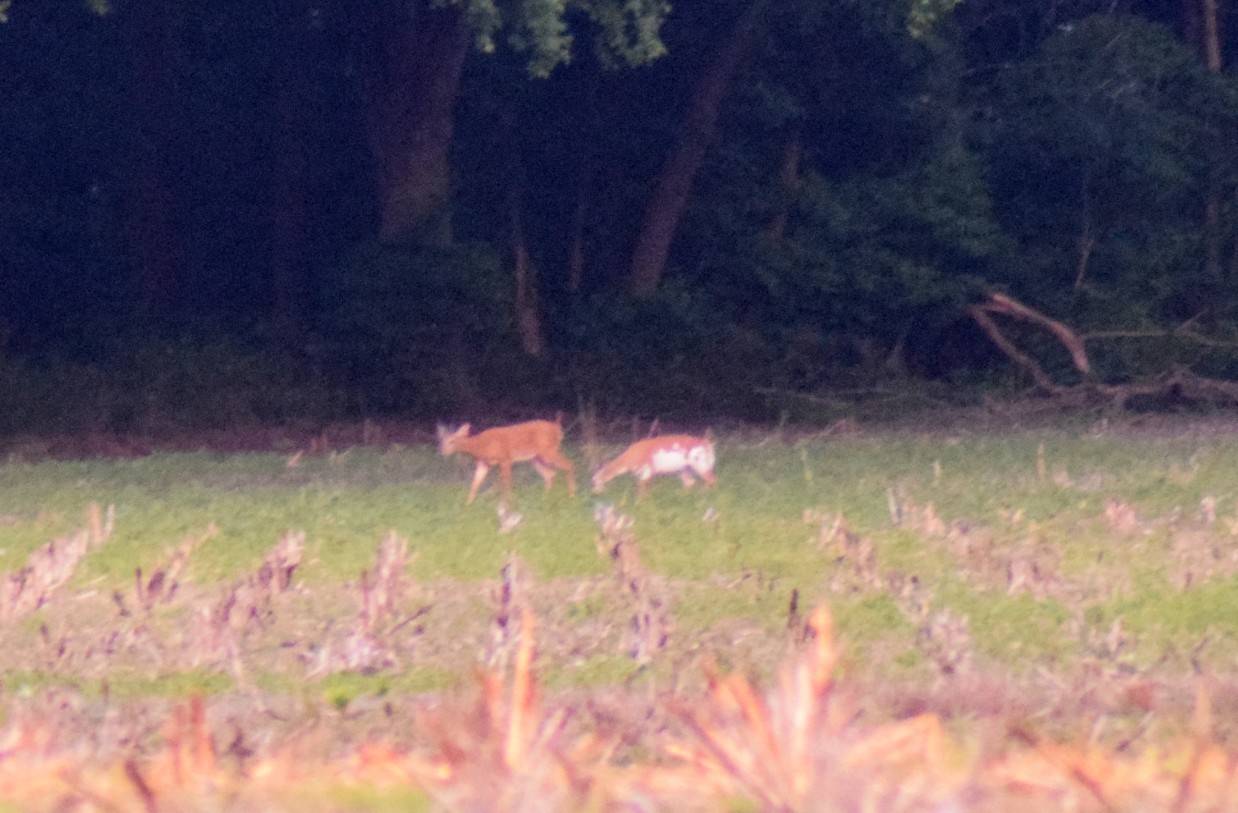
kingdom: Animalia
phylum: Chordata
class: Mammalia
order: Artiodactyla
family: Cervidae
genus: Odocoileus
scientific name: Odocoileus virginianus
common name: White-tailed deer
